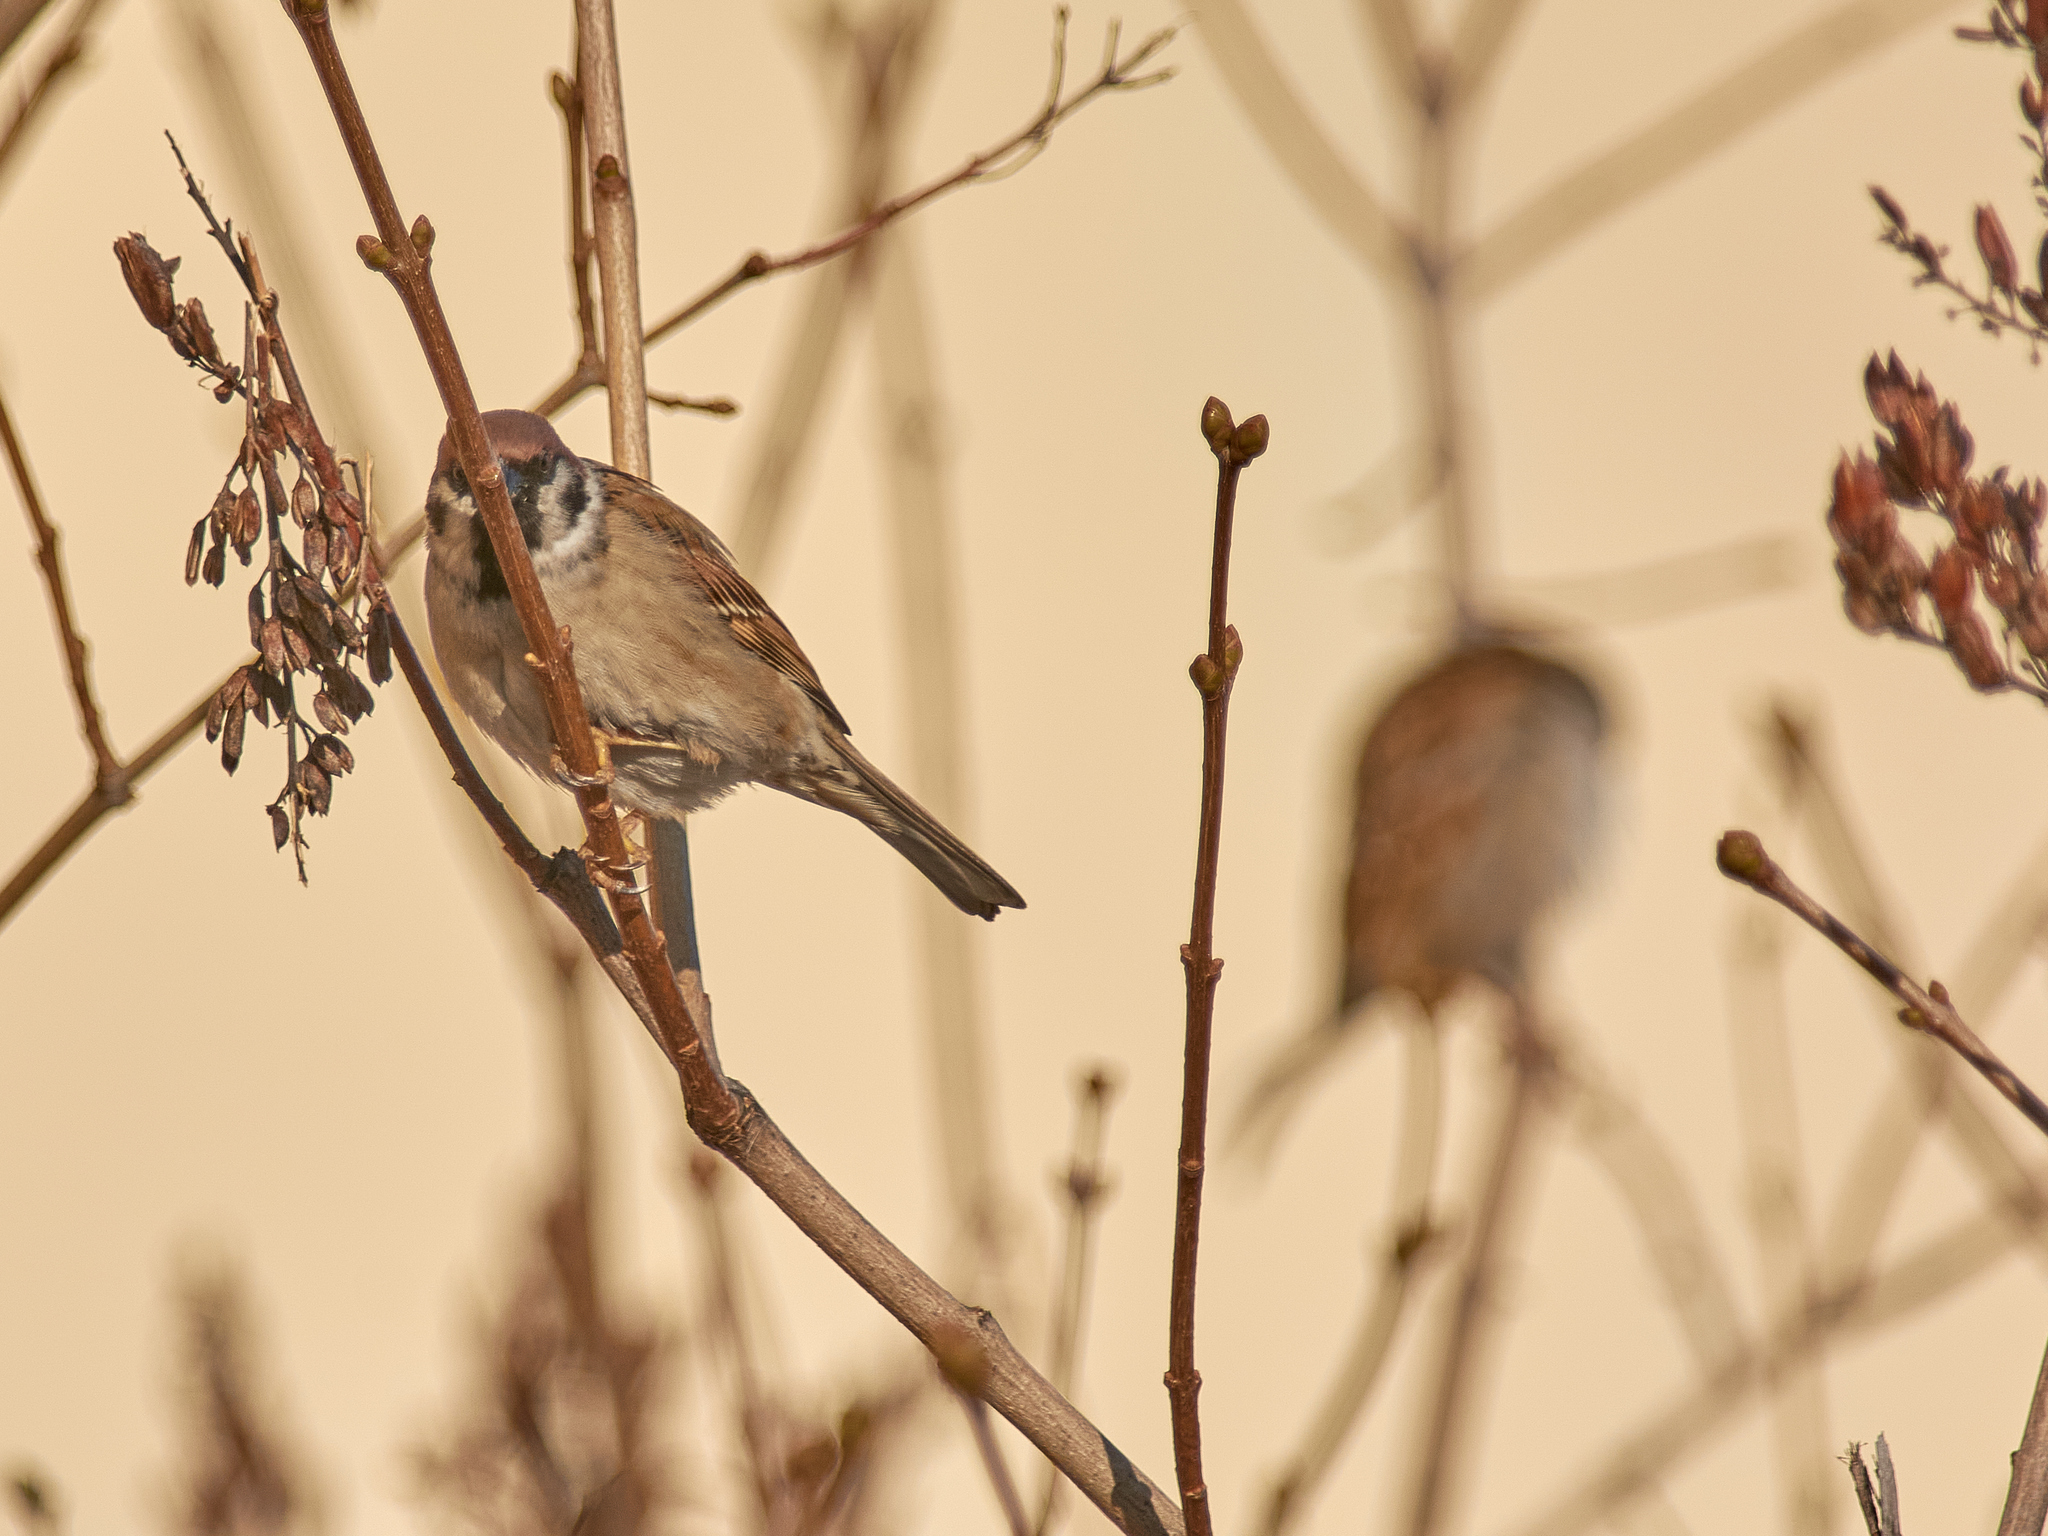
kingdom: Animalia
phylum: Chordata
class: Aves
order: Passeriformes
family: Passeridae
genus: Passer
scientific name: Passer montanus
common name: Eurasian tree sparrow
